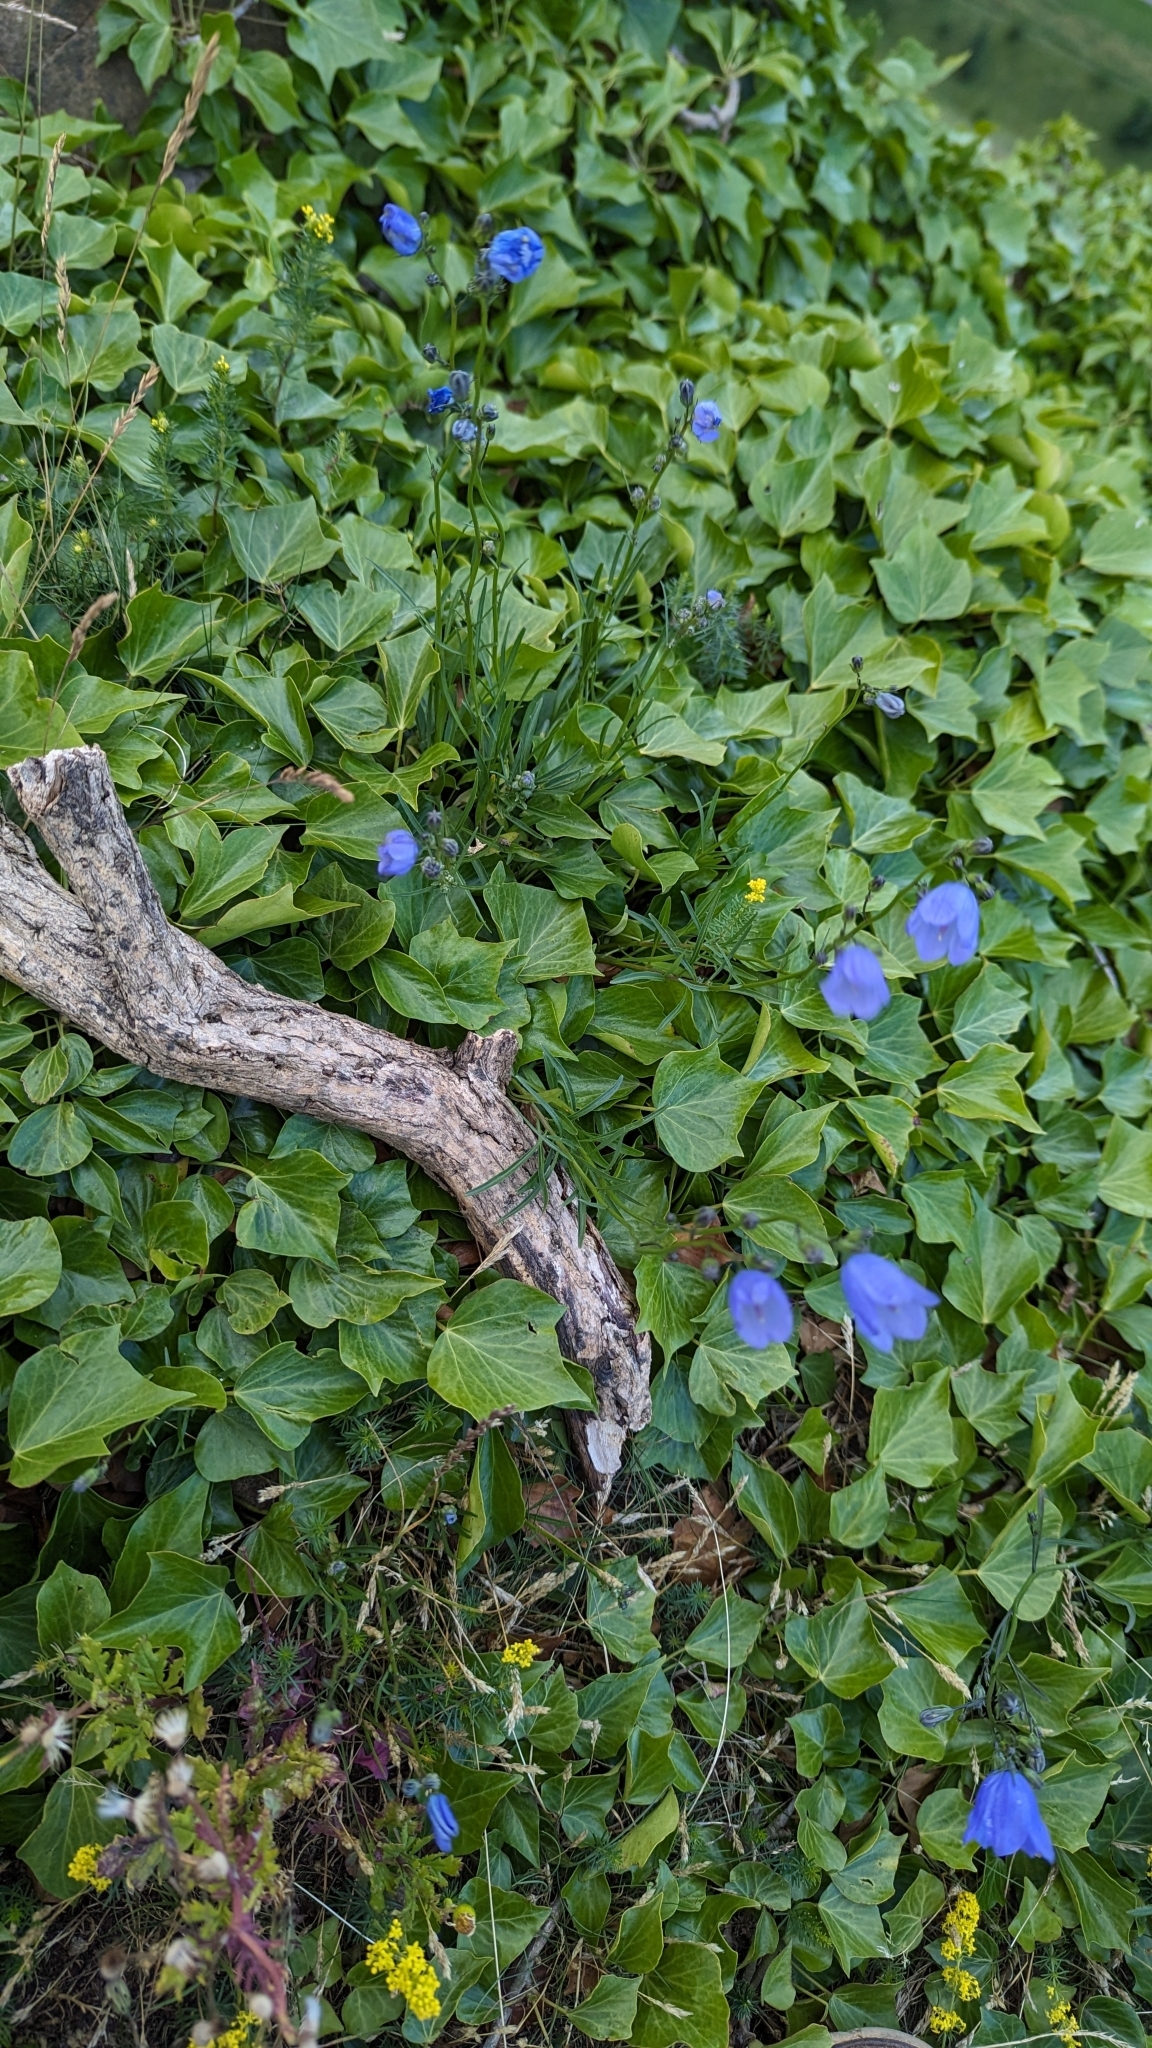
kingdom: Plantae
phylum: Tracheophyta
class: Magnoliopsida
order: Asterales
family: Campanulaceae
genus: Campanula
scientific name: Campanula rotundifolia
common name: Harebell
